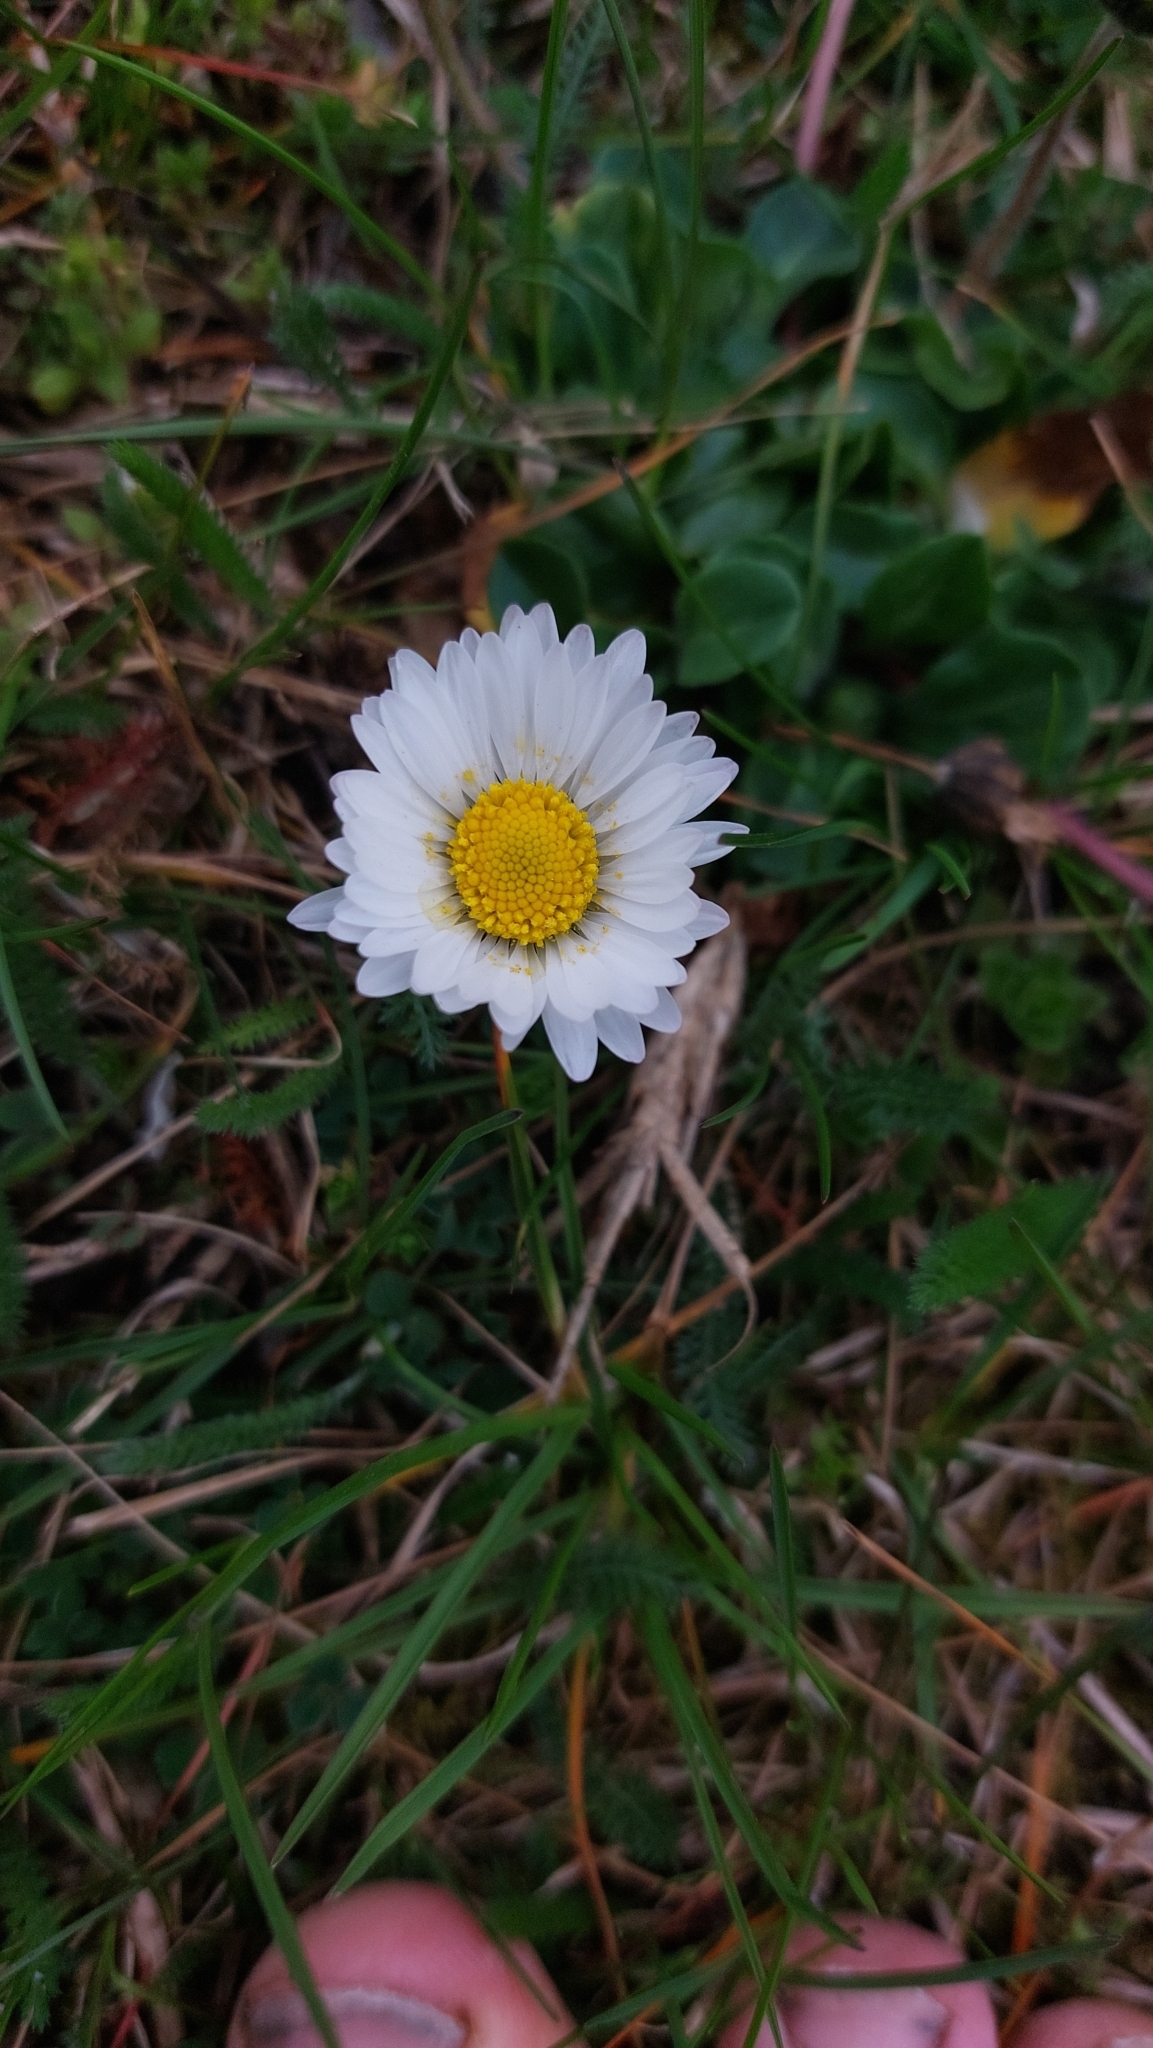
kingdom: Plantae
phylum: Tracheophyta
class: Magnoliopsida
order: Asterales
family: Asteraceae
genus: Bellis
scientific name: Bellis perennis
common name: Lawndaisy
